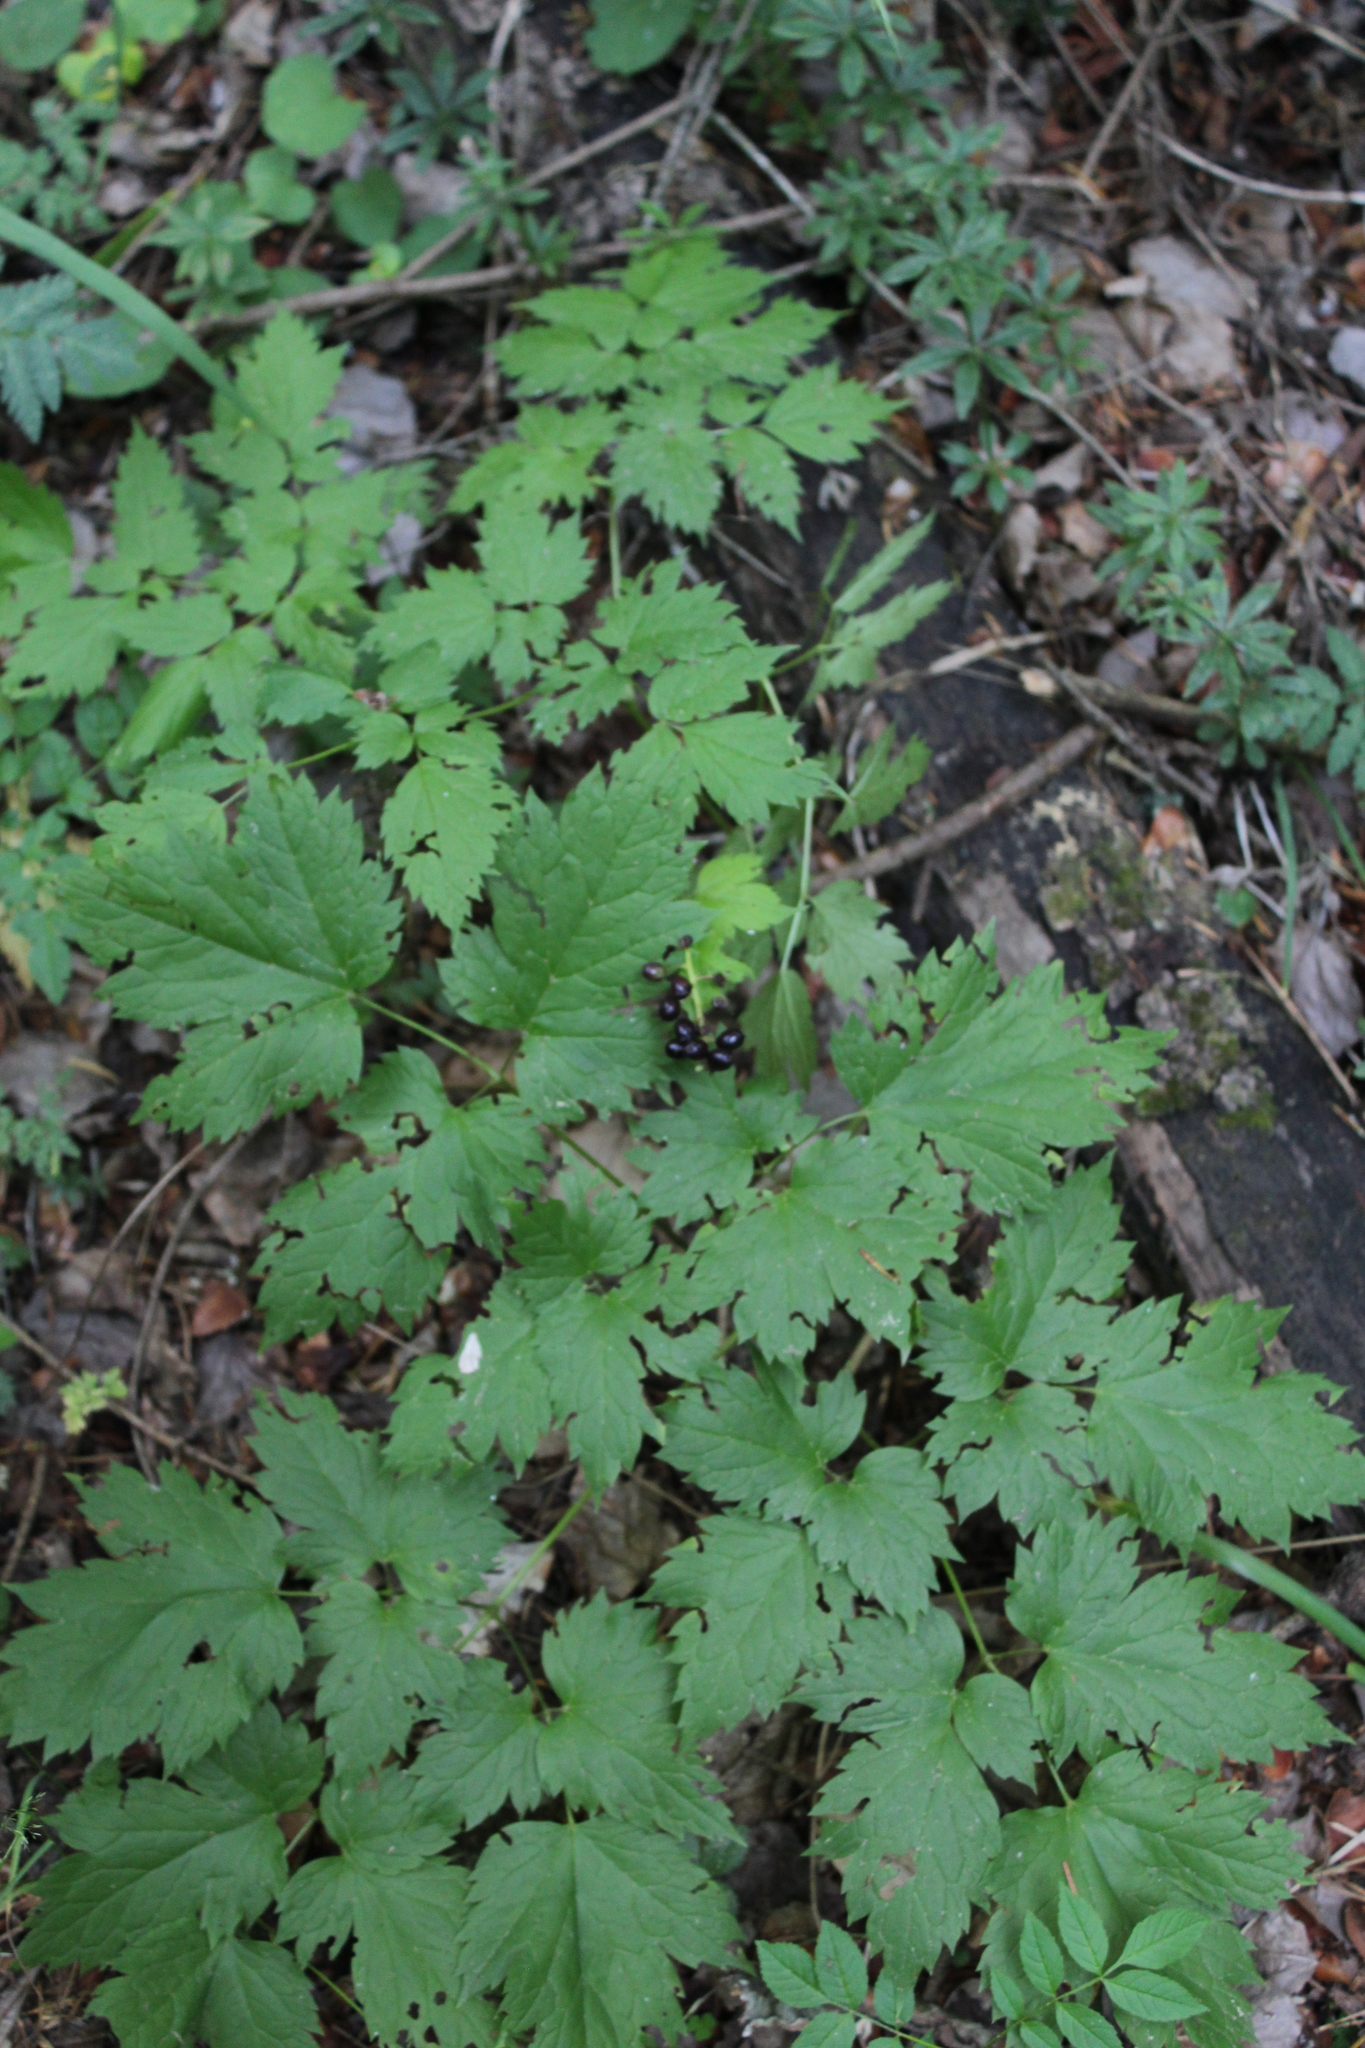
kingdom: Plantae
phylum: Tracheophyta
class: Magnoliopsida
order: Ranunculales
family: Ranunculaceae
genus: Actaea
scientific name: Actaea spicata
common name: Baneberry
